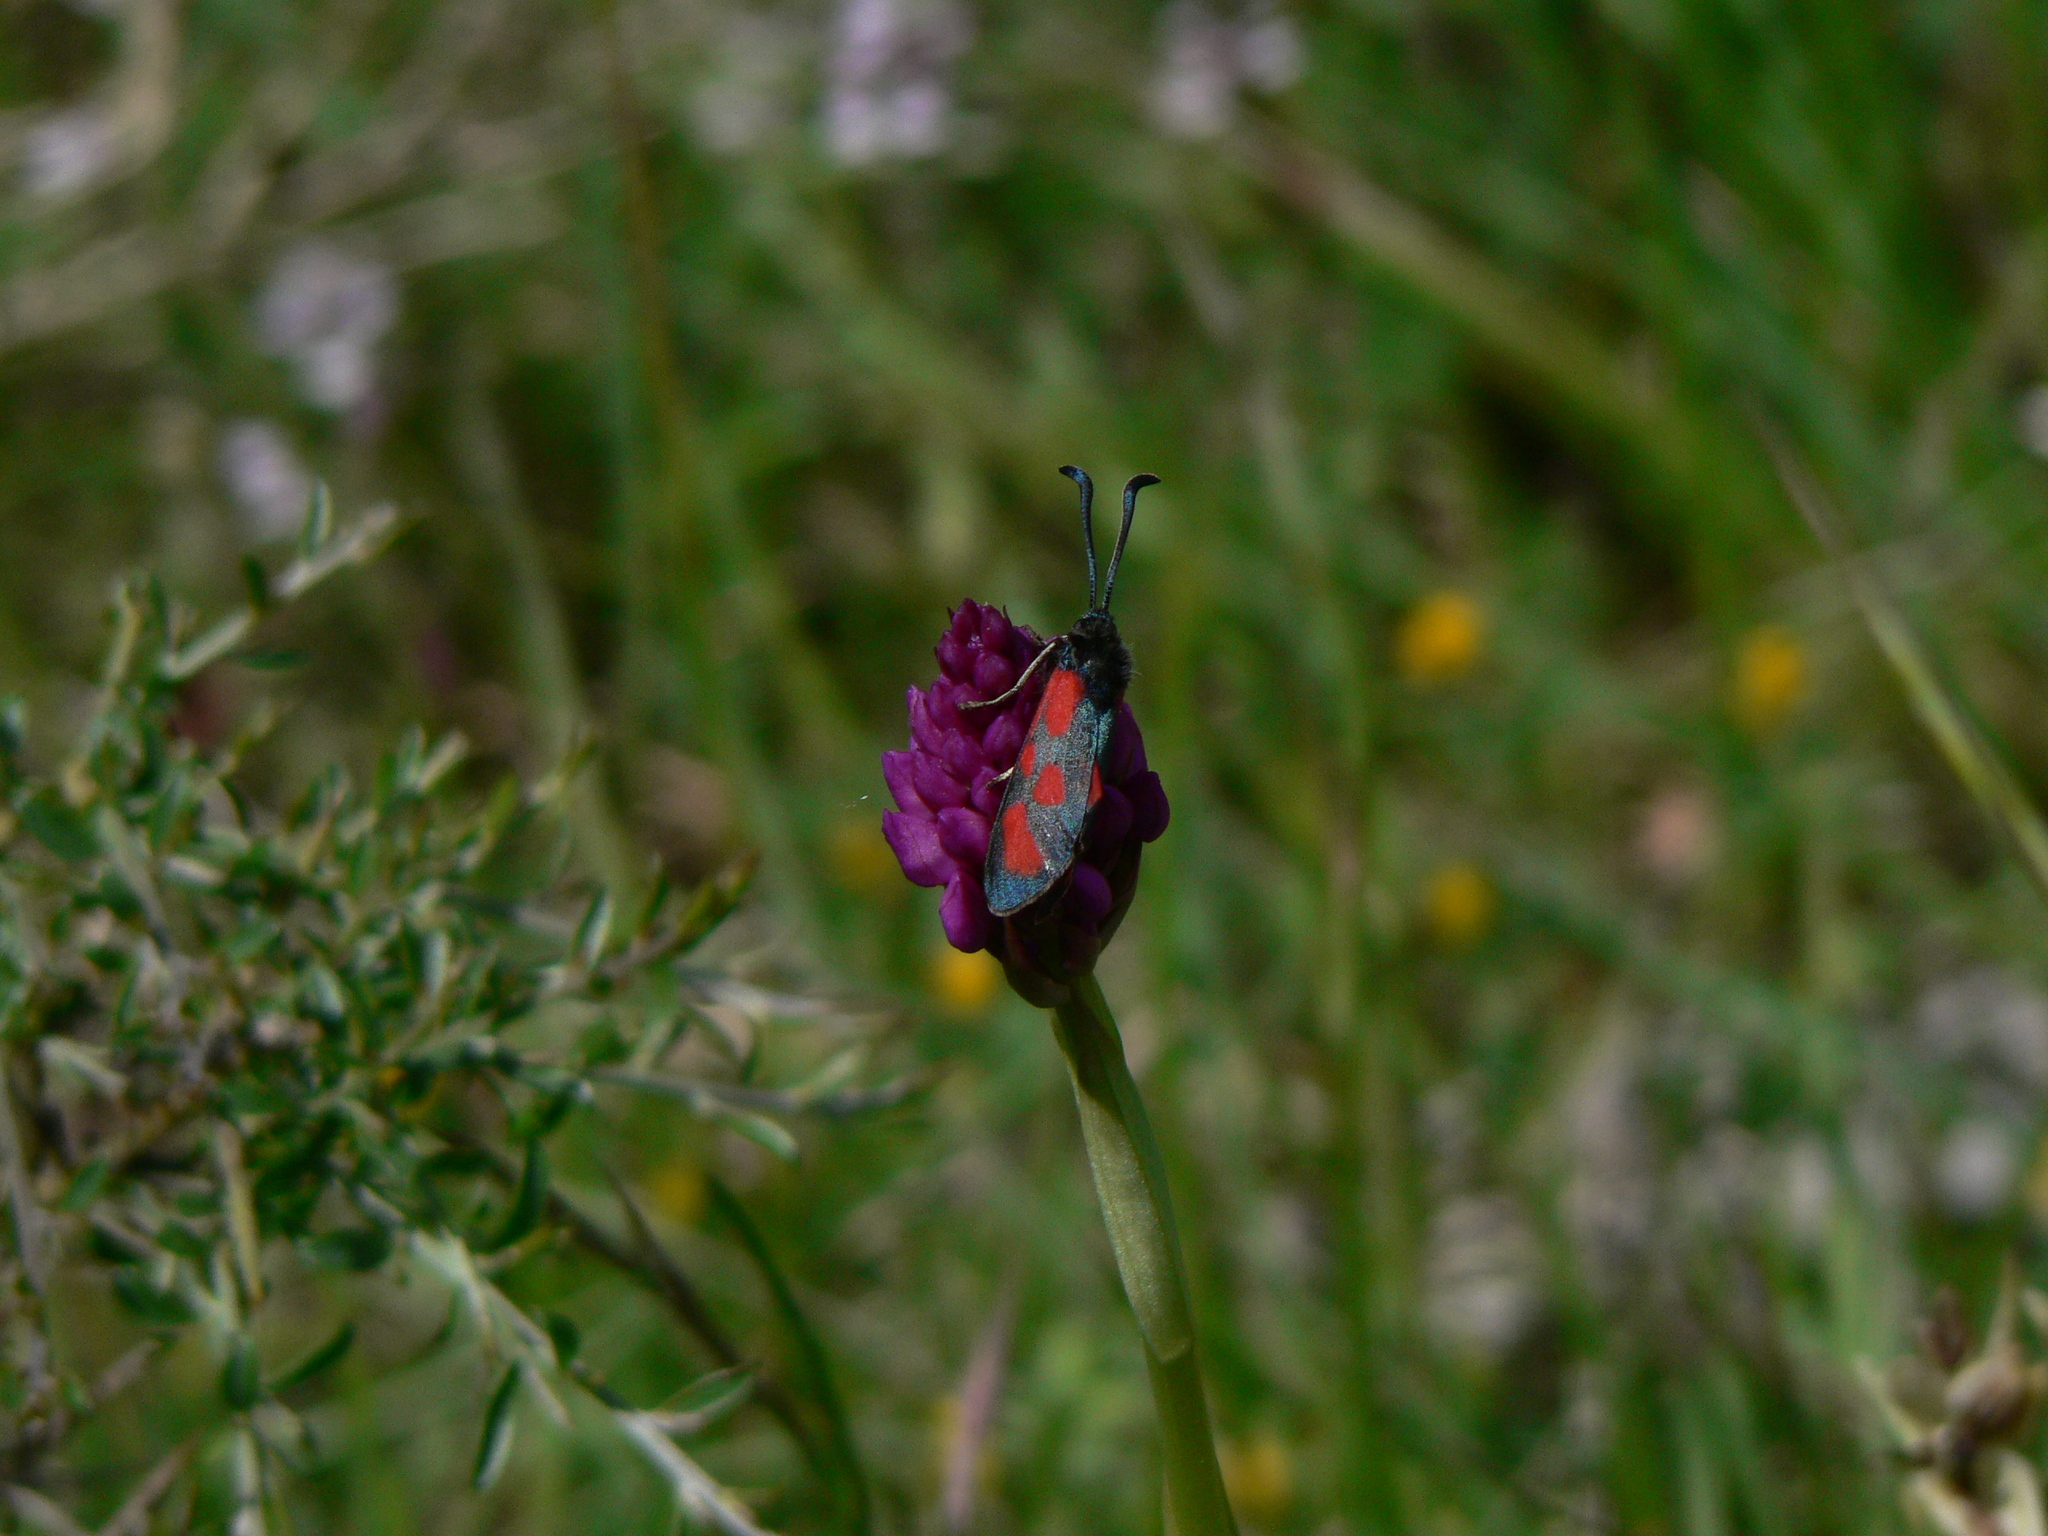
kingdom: Animalia
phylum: Arthropoda
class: Insecta
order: Lepidoptera
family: Zygaenidae
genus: Zygaena
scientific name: Zygaena loti
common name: Slender scotch burnet
